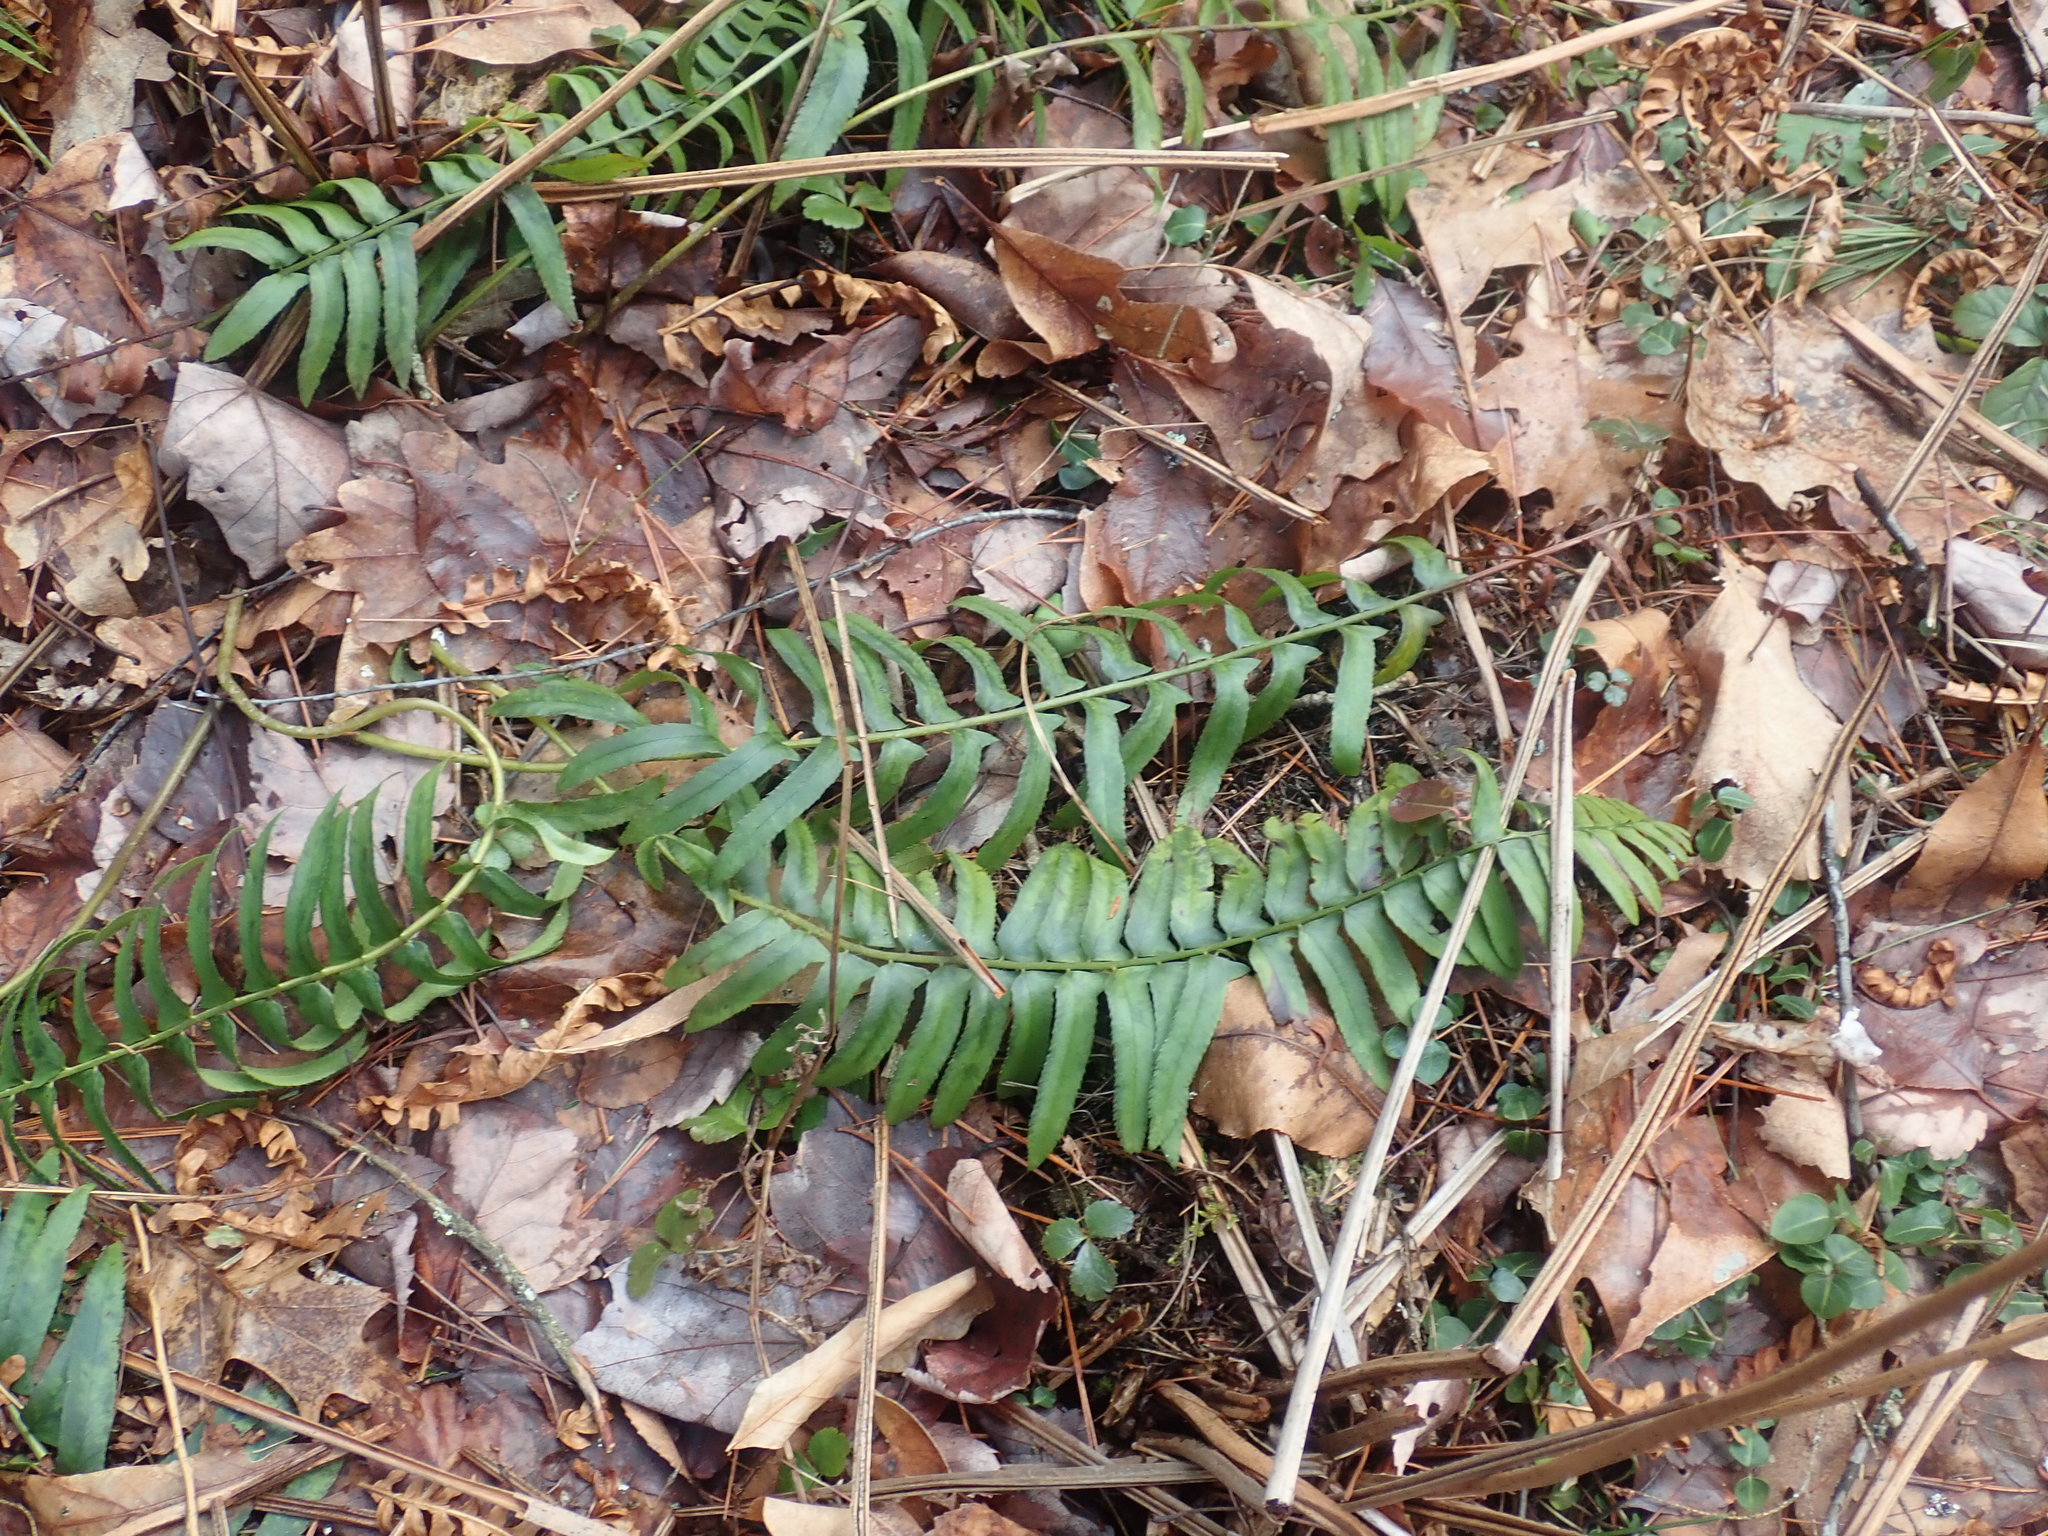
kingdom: Plantae
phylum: Tracheophyta
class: Polypodiopsida
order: Polypodiales
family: Dryopteridaceae
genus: Polystichum
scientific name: Polystichum acrostichoides
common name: Christmas fern
